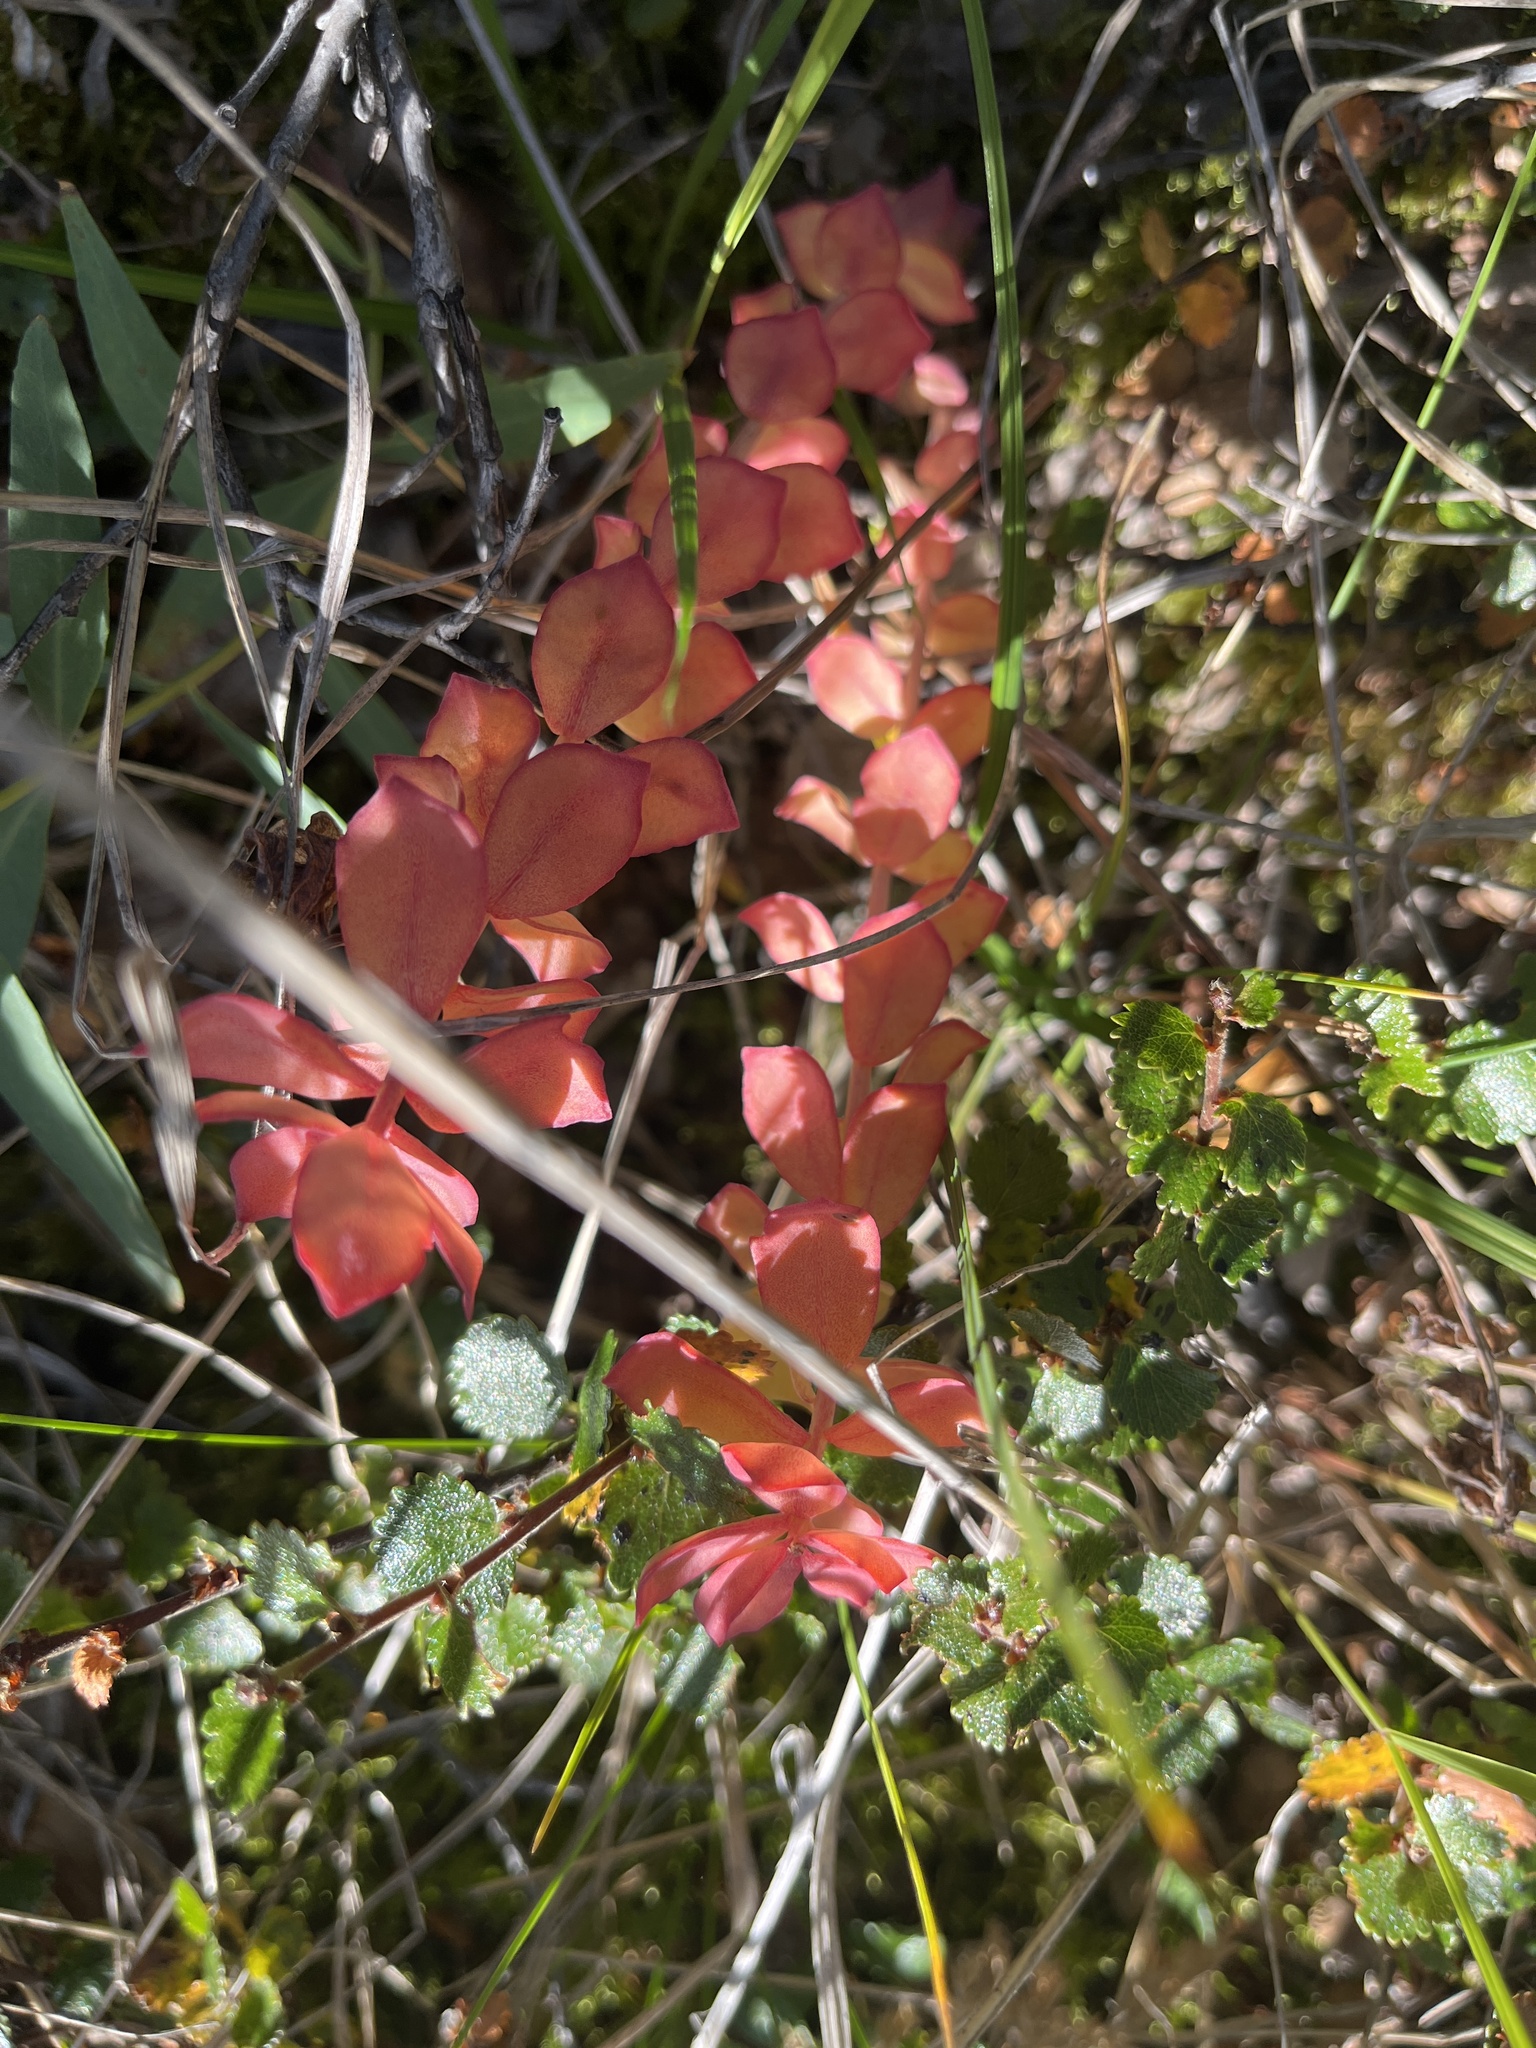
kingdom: Plantae
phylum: Tracheophyta
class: Magnoliopsida
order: Saxifragales
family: Crassulaceae
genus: Rhodiola
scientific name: Rhodiola rosea
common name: Roseroot
